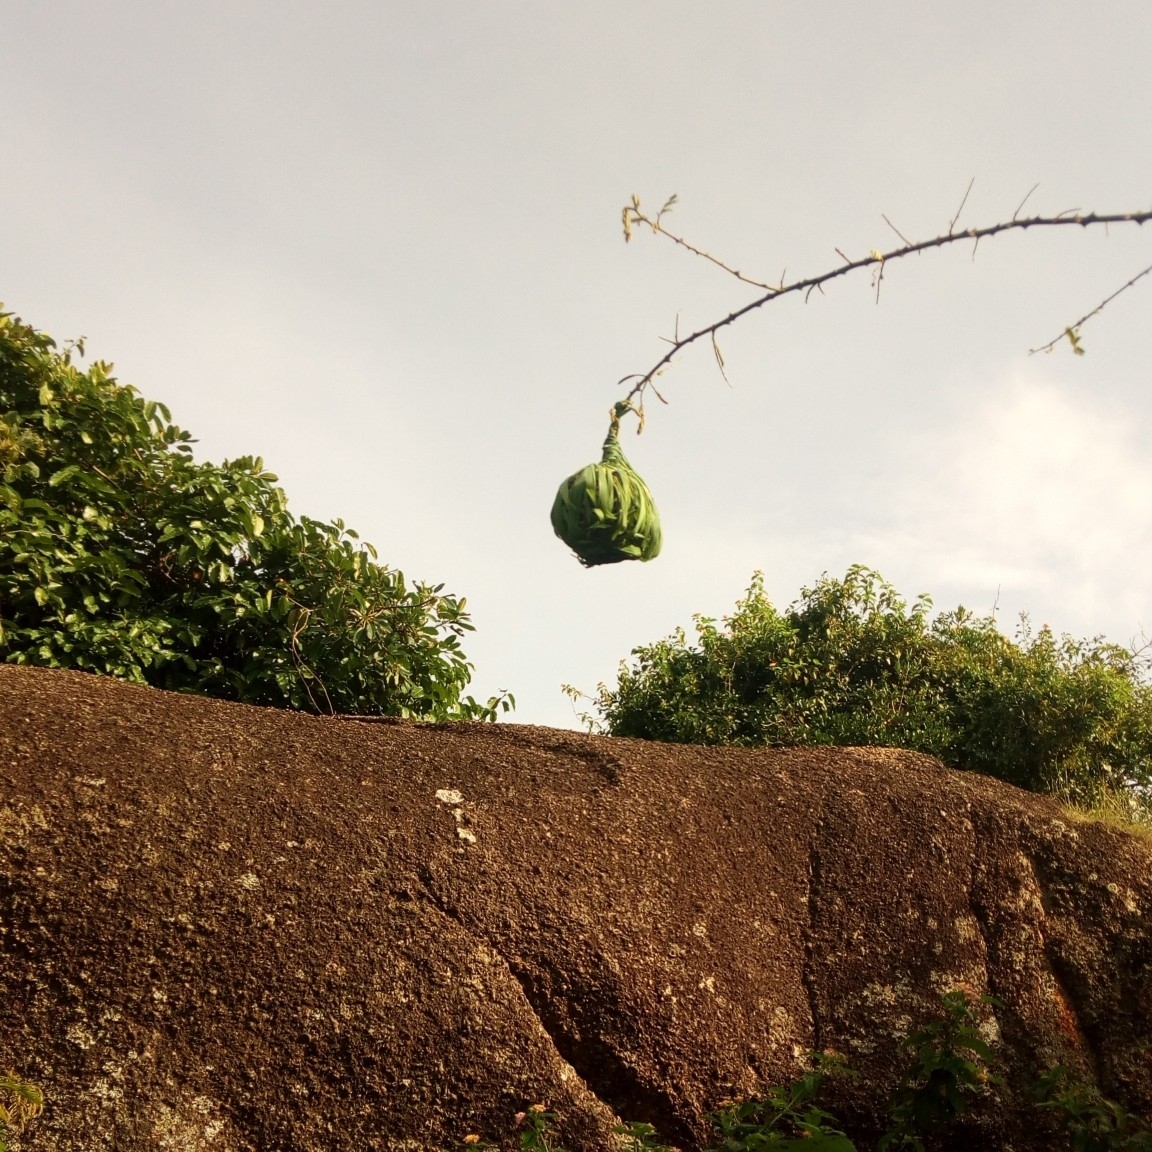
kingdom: Animalia
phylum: Chordata
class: Aves
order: Passeriformes
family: Ploceidae
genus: Ploceus
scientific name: Ploceus vitellinus
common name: Vitelline masked weaver
